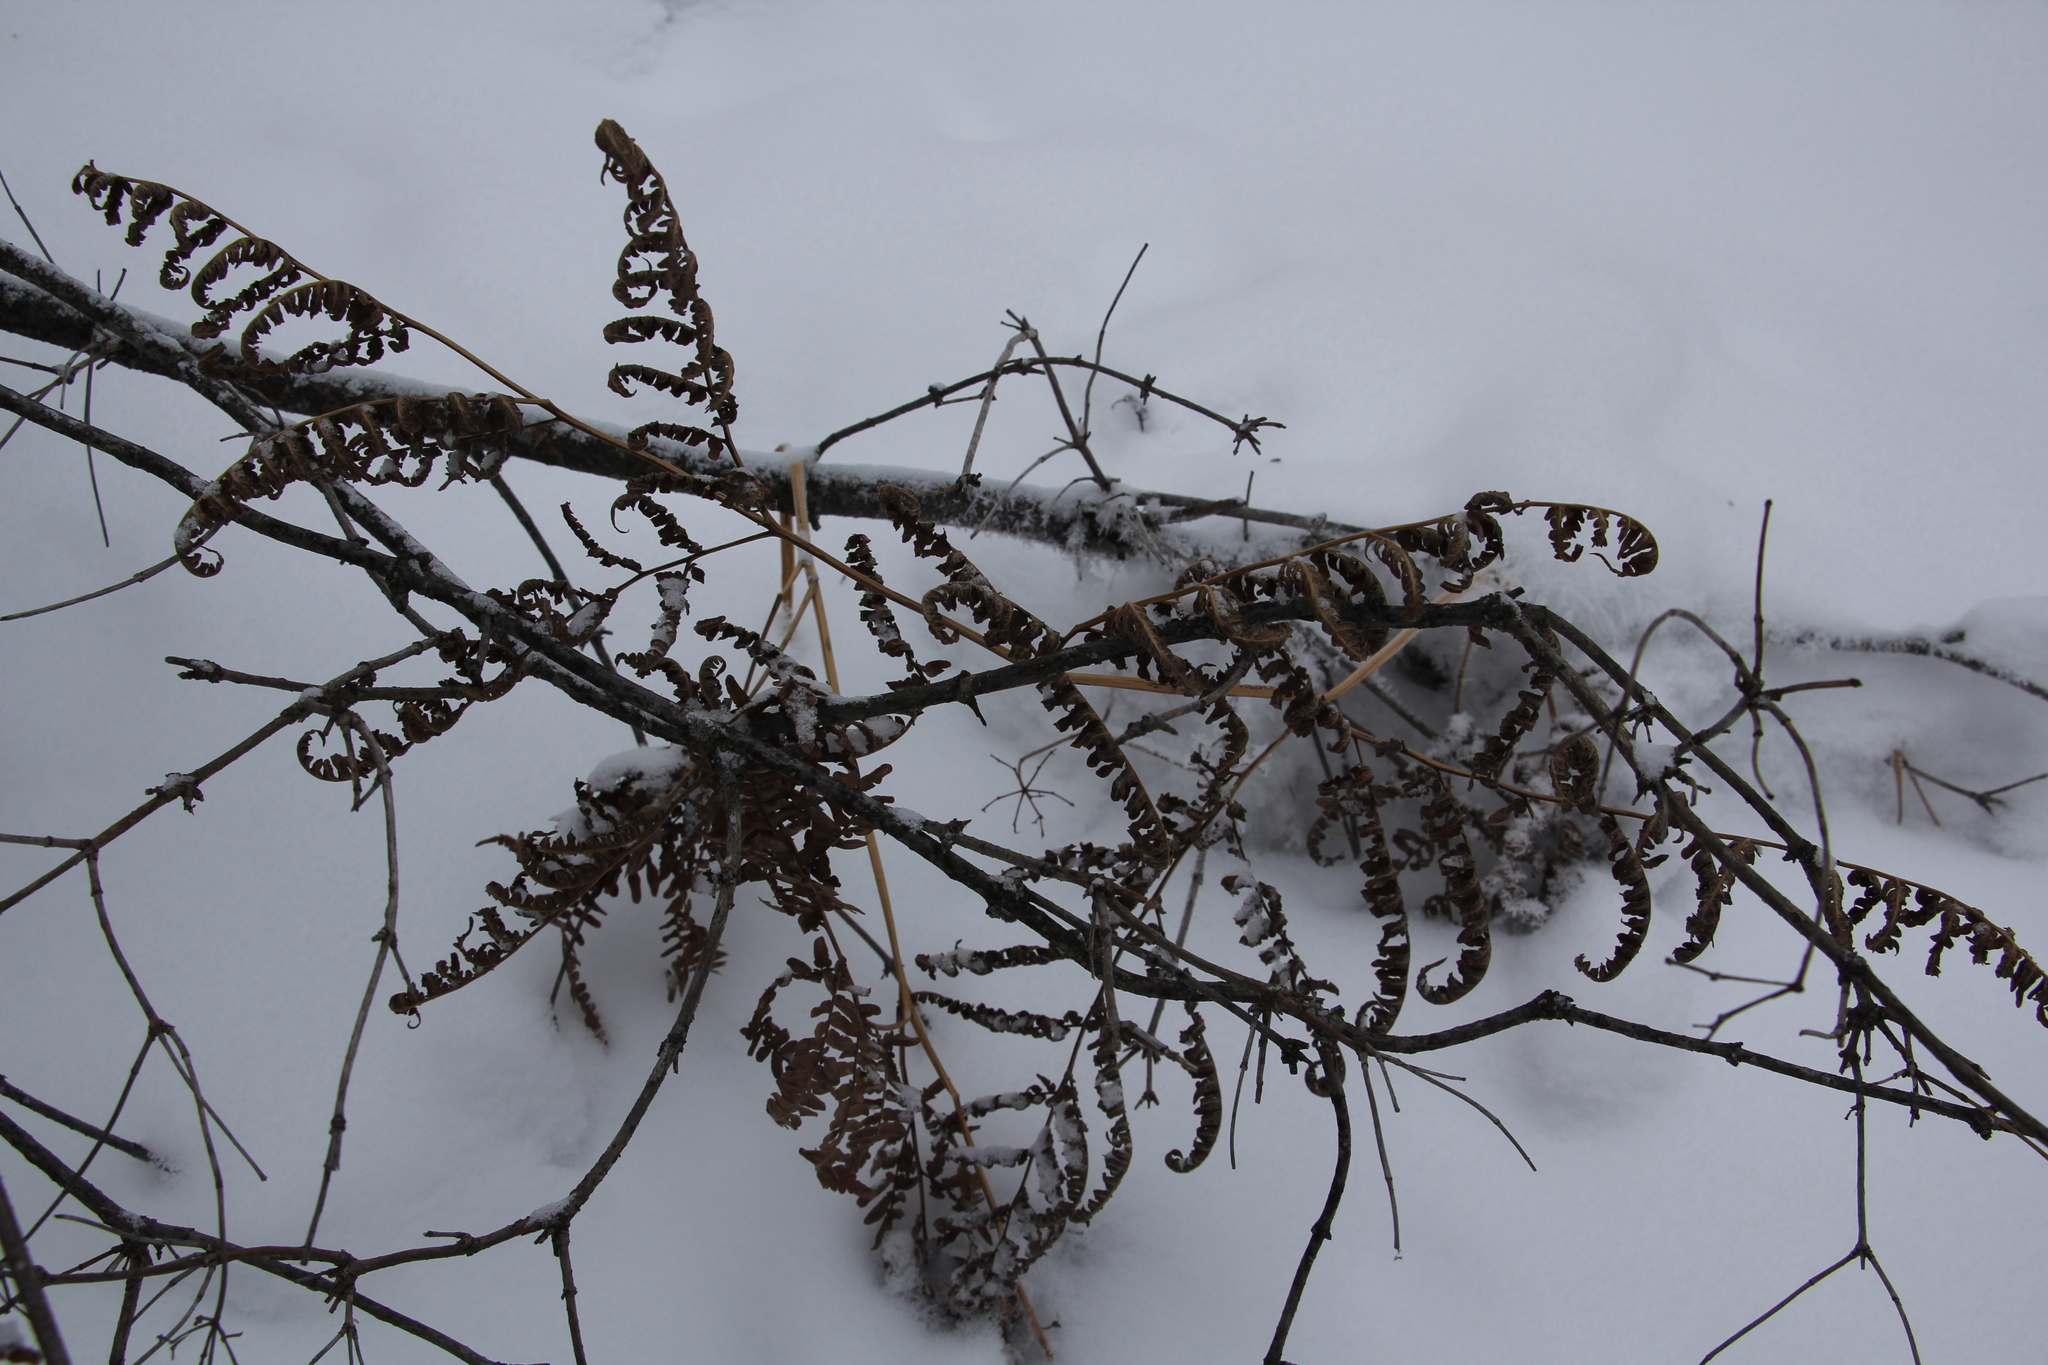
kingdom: Plantae
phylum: Tracheophyta
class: Polypodiopsida
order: Polypodiales
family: Dennstaedtiaceae
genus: Pteridium
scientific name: Pteridium aquilinum
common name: Bracken
